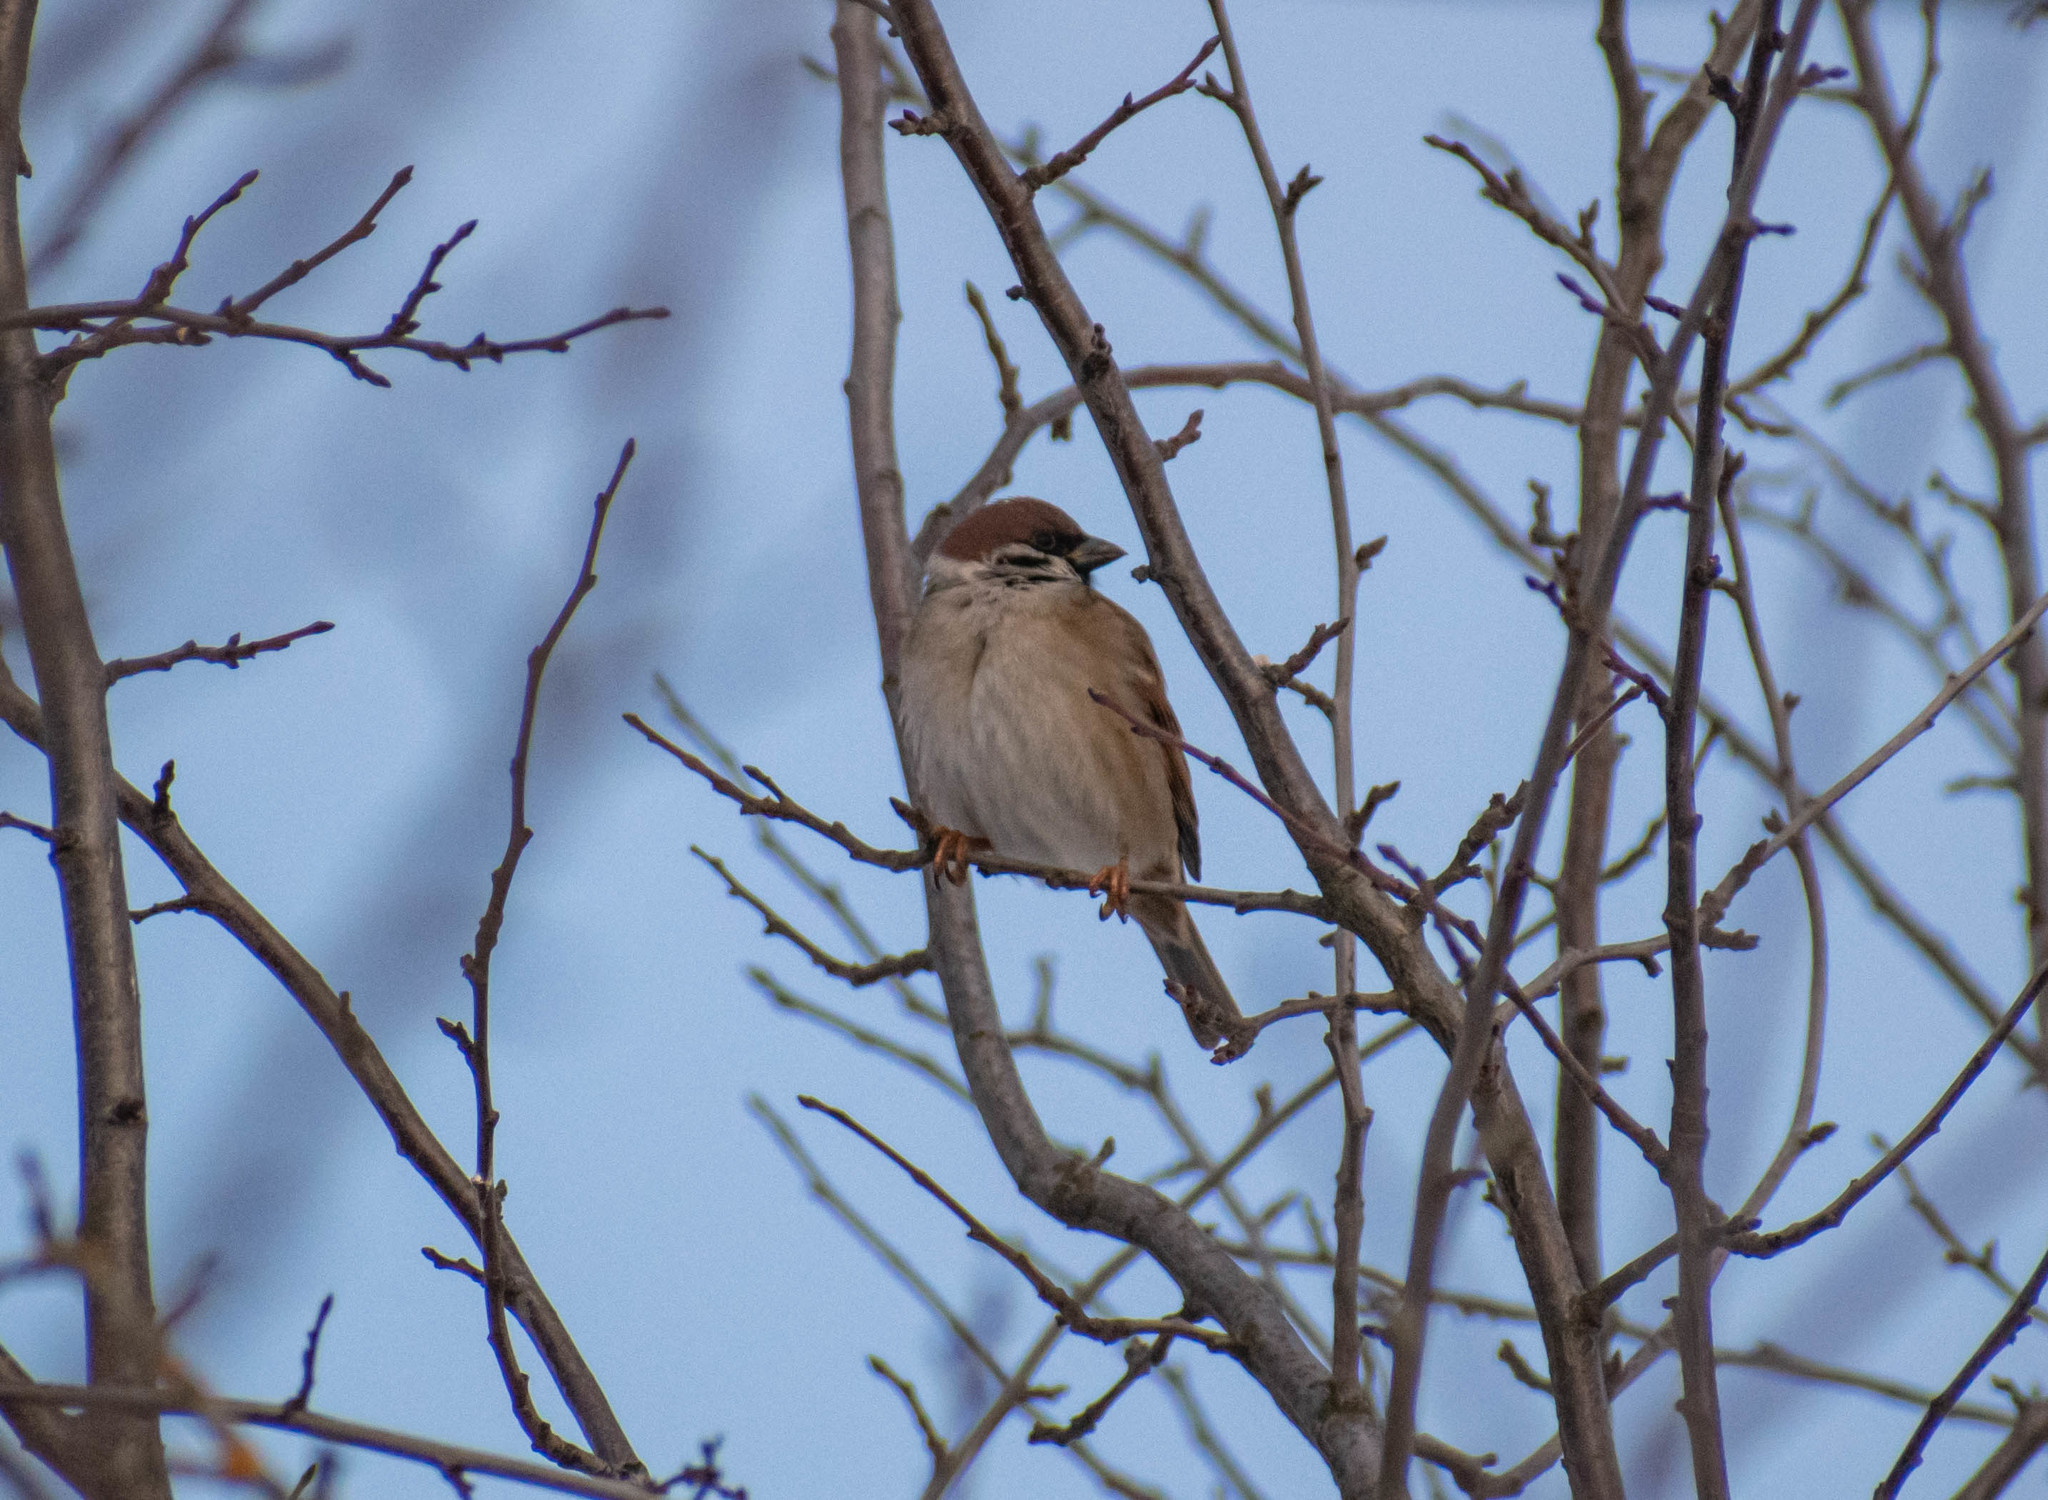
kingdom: Animalia
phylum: Chordata
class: Aves
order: Passeriformes
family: Passeridae
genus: Passer
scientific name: Passer montanus
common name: Eurasian tree sparrow
